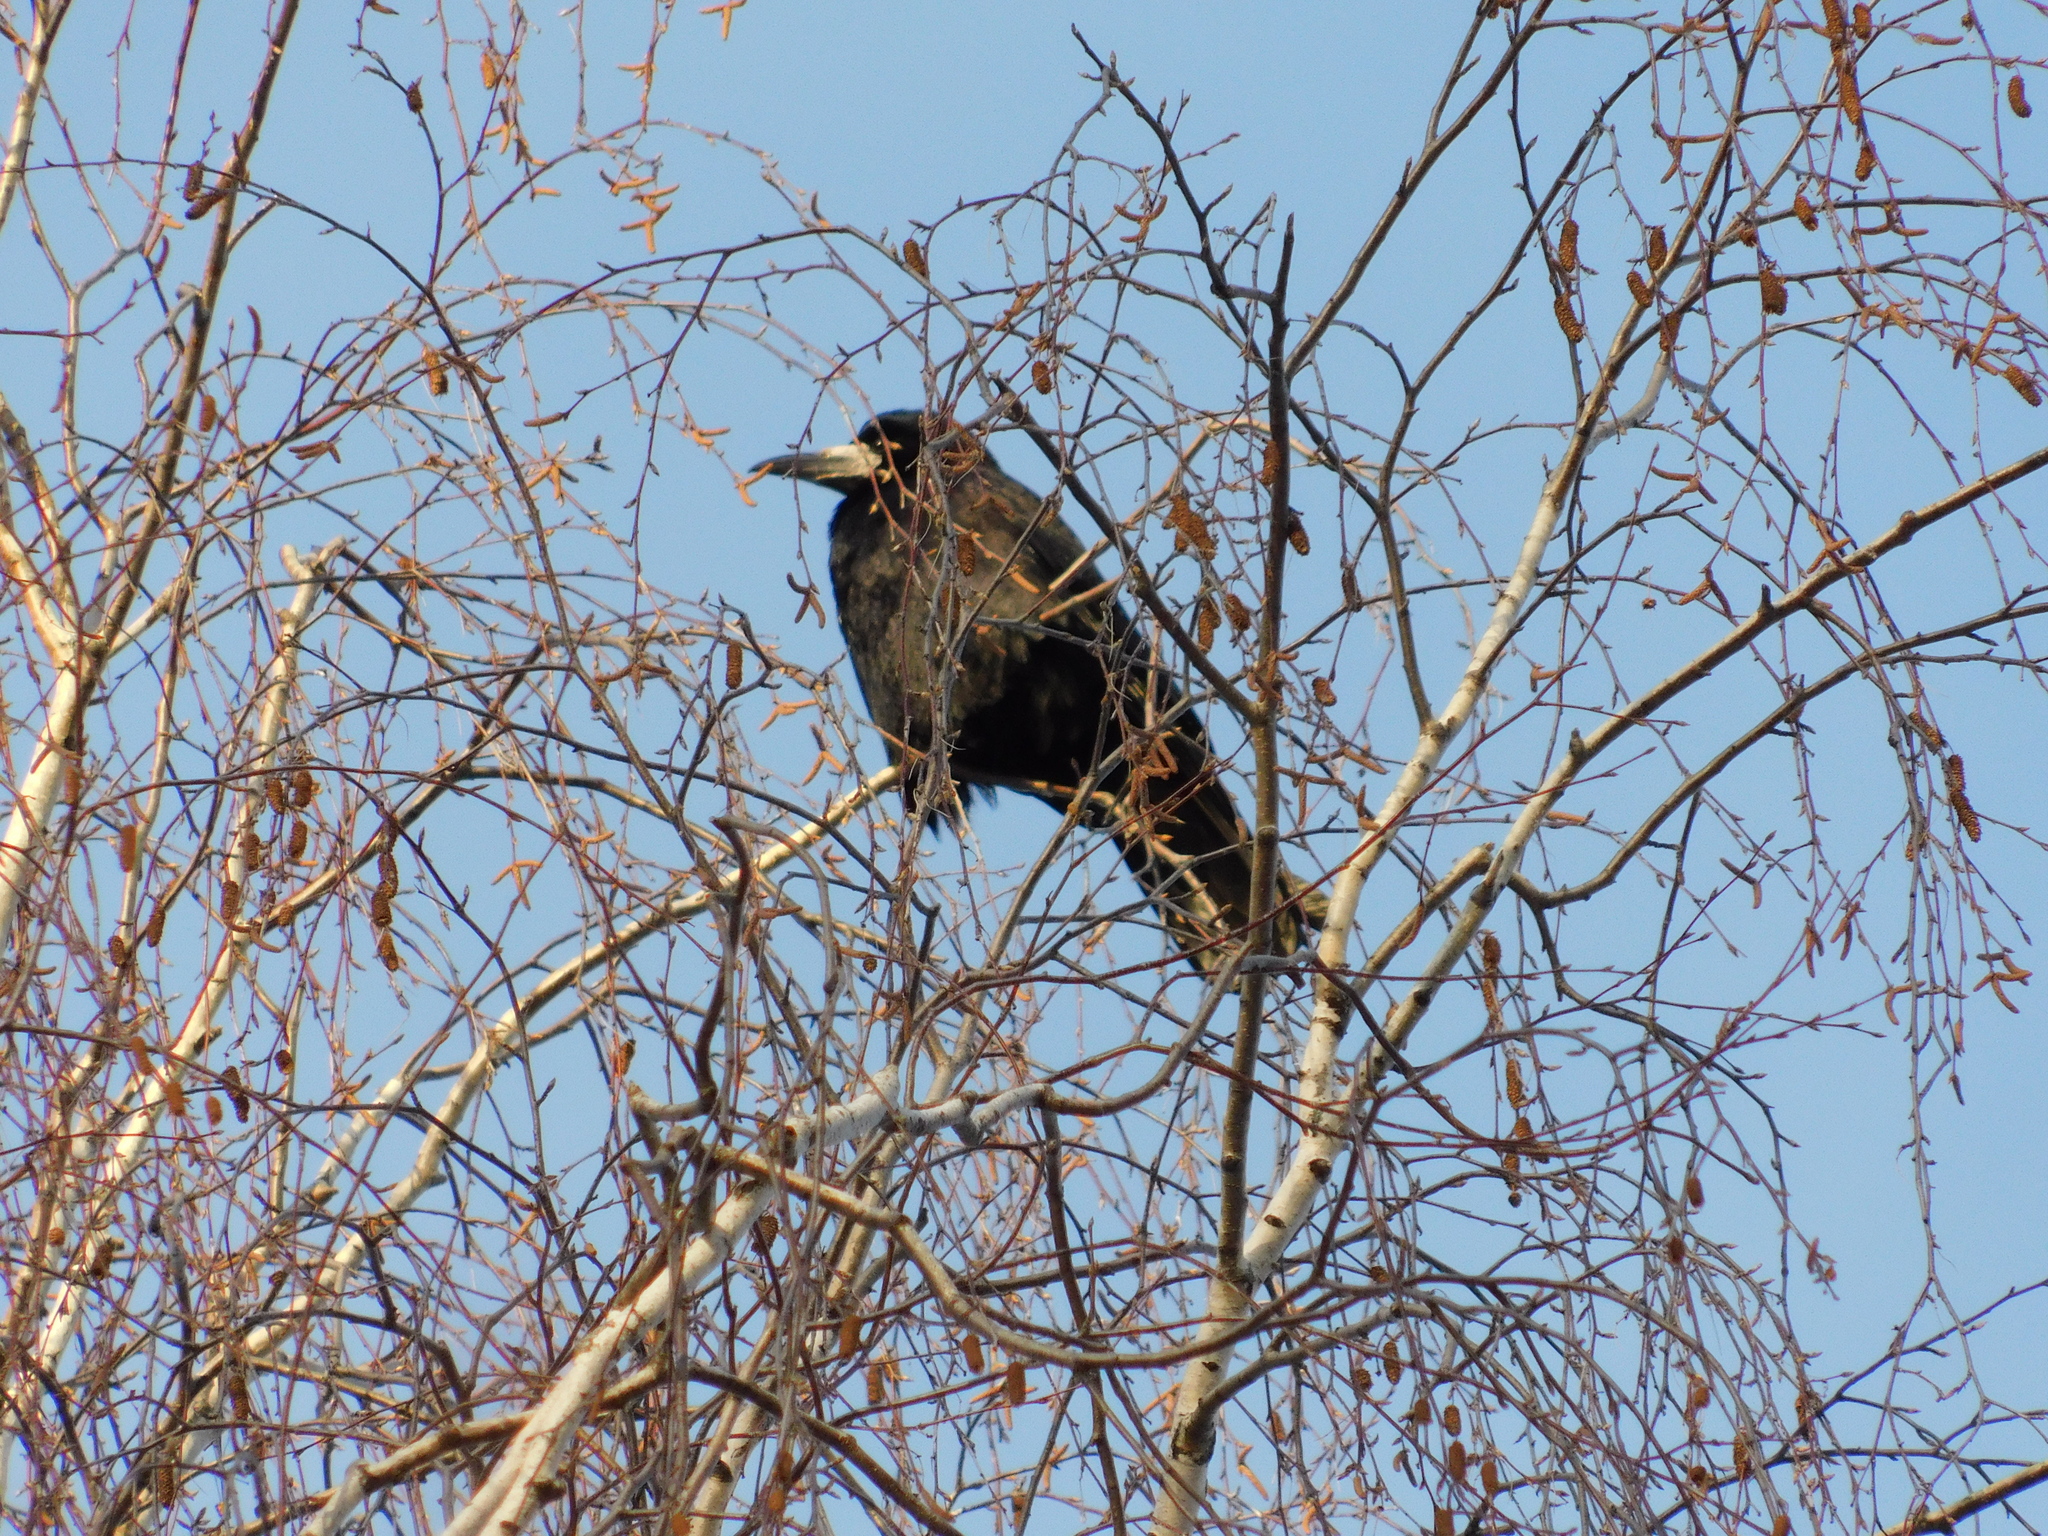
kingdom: Animalia
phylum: Chordata
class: Aves
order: Passeriformes
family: Corvidae
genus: Corvus
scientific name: Corvus frugilegus
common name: Rook
